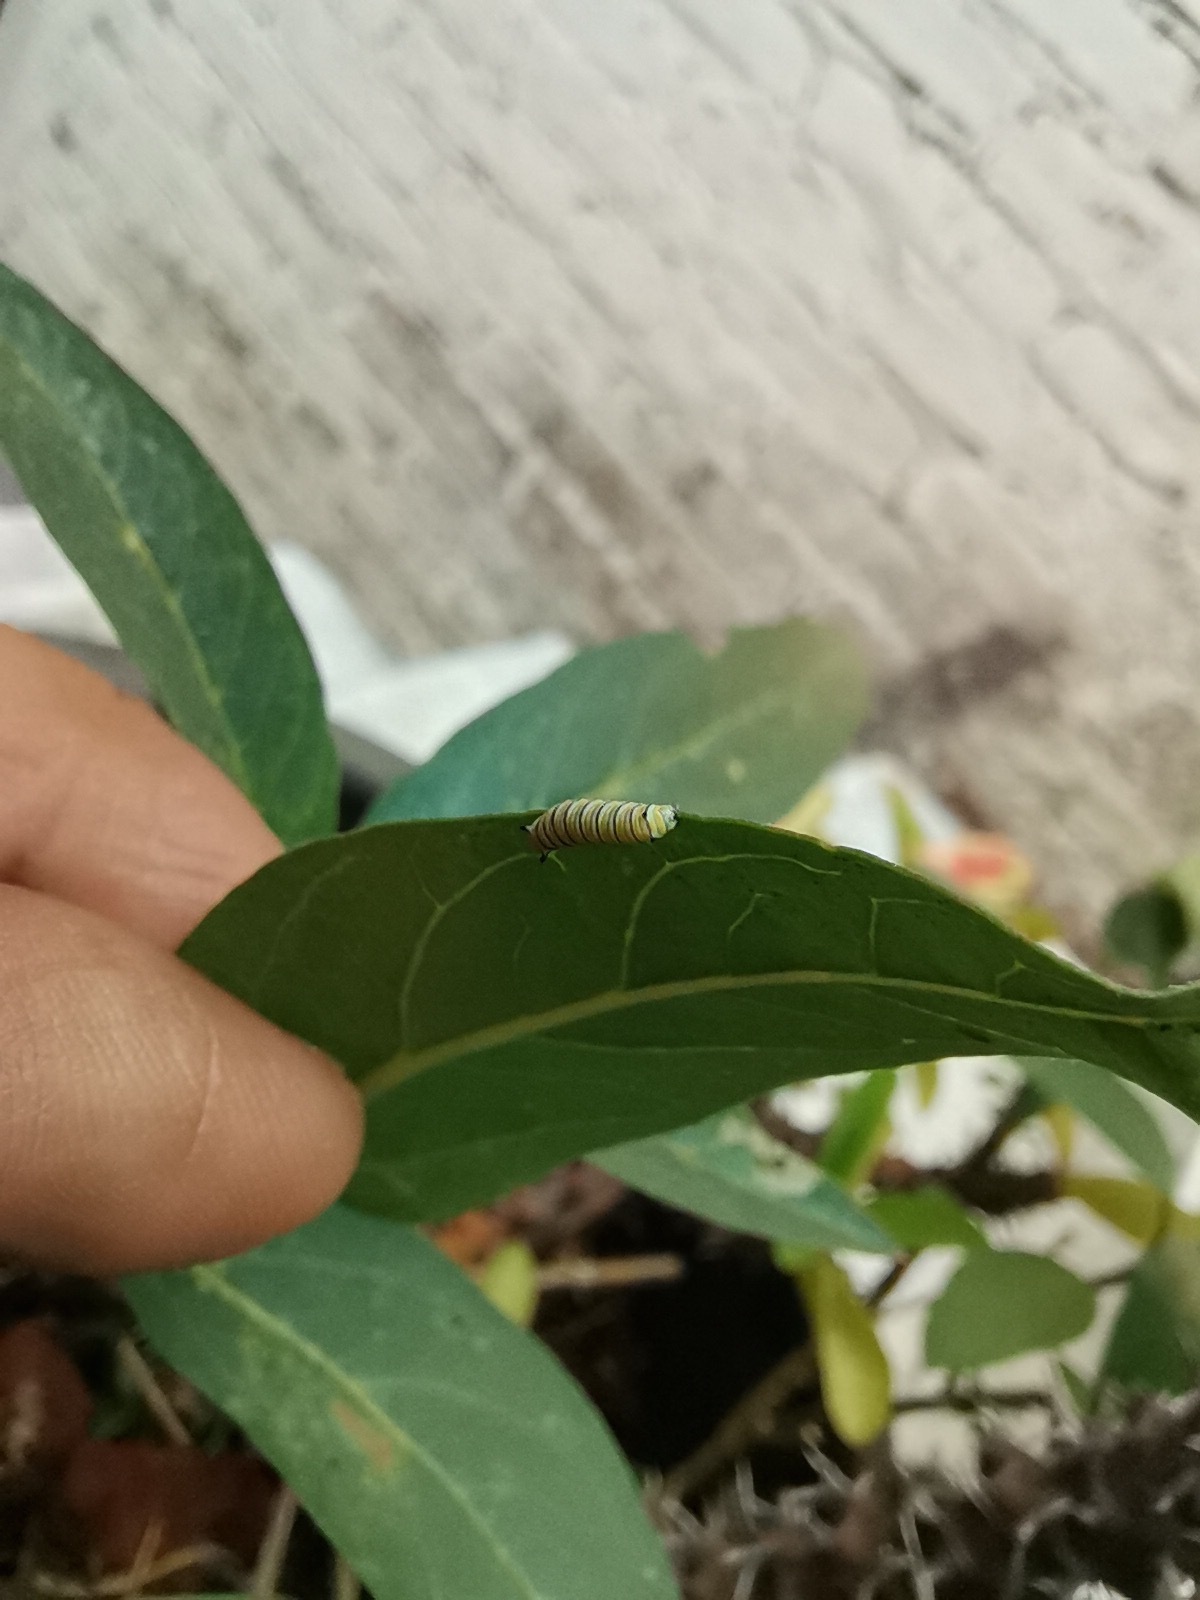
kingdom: Animalia
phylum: Arthropoda
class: Insecta
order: Lepidoptera
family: Nymphalidae
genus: Danaus
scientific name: Danaus plexippus
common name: Monarch
